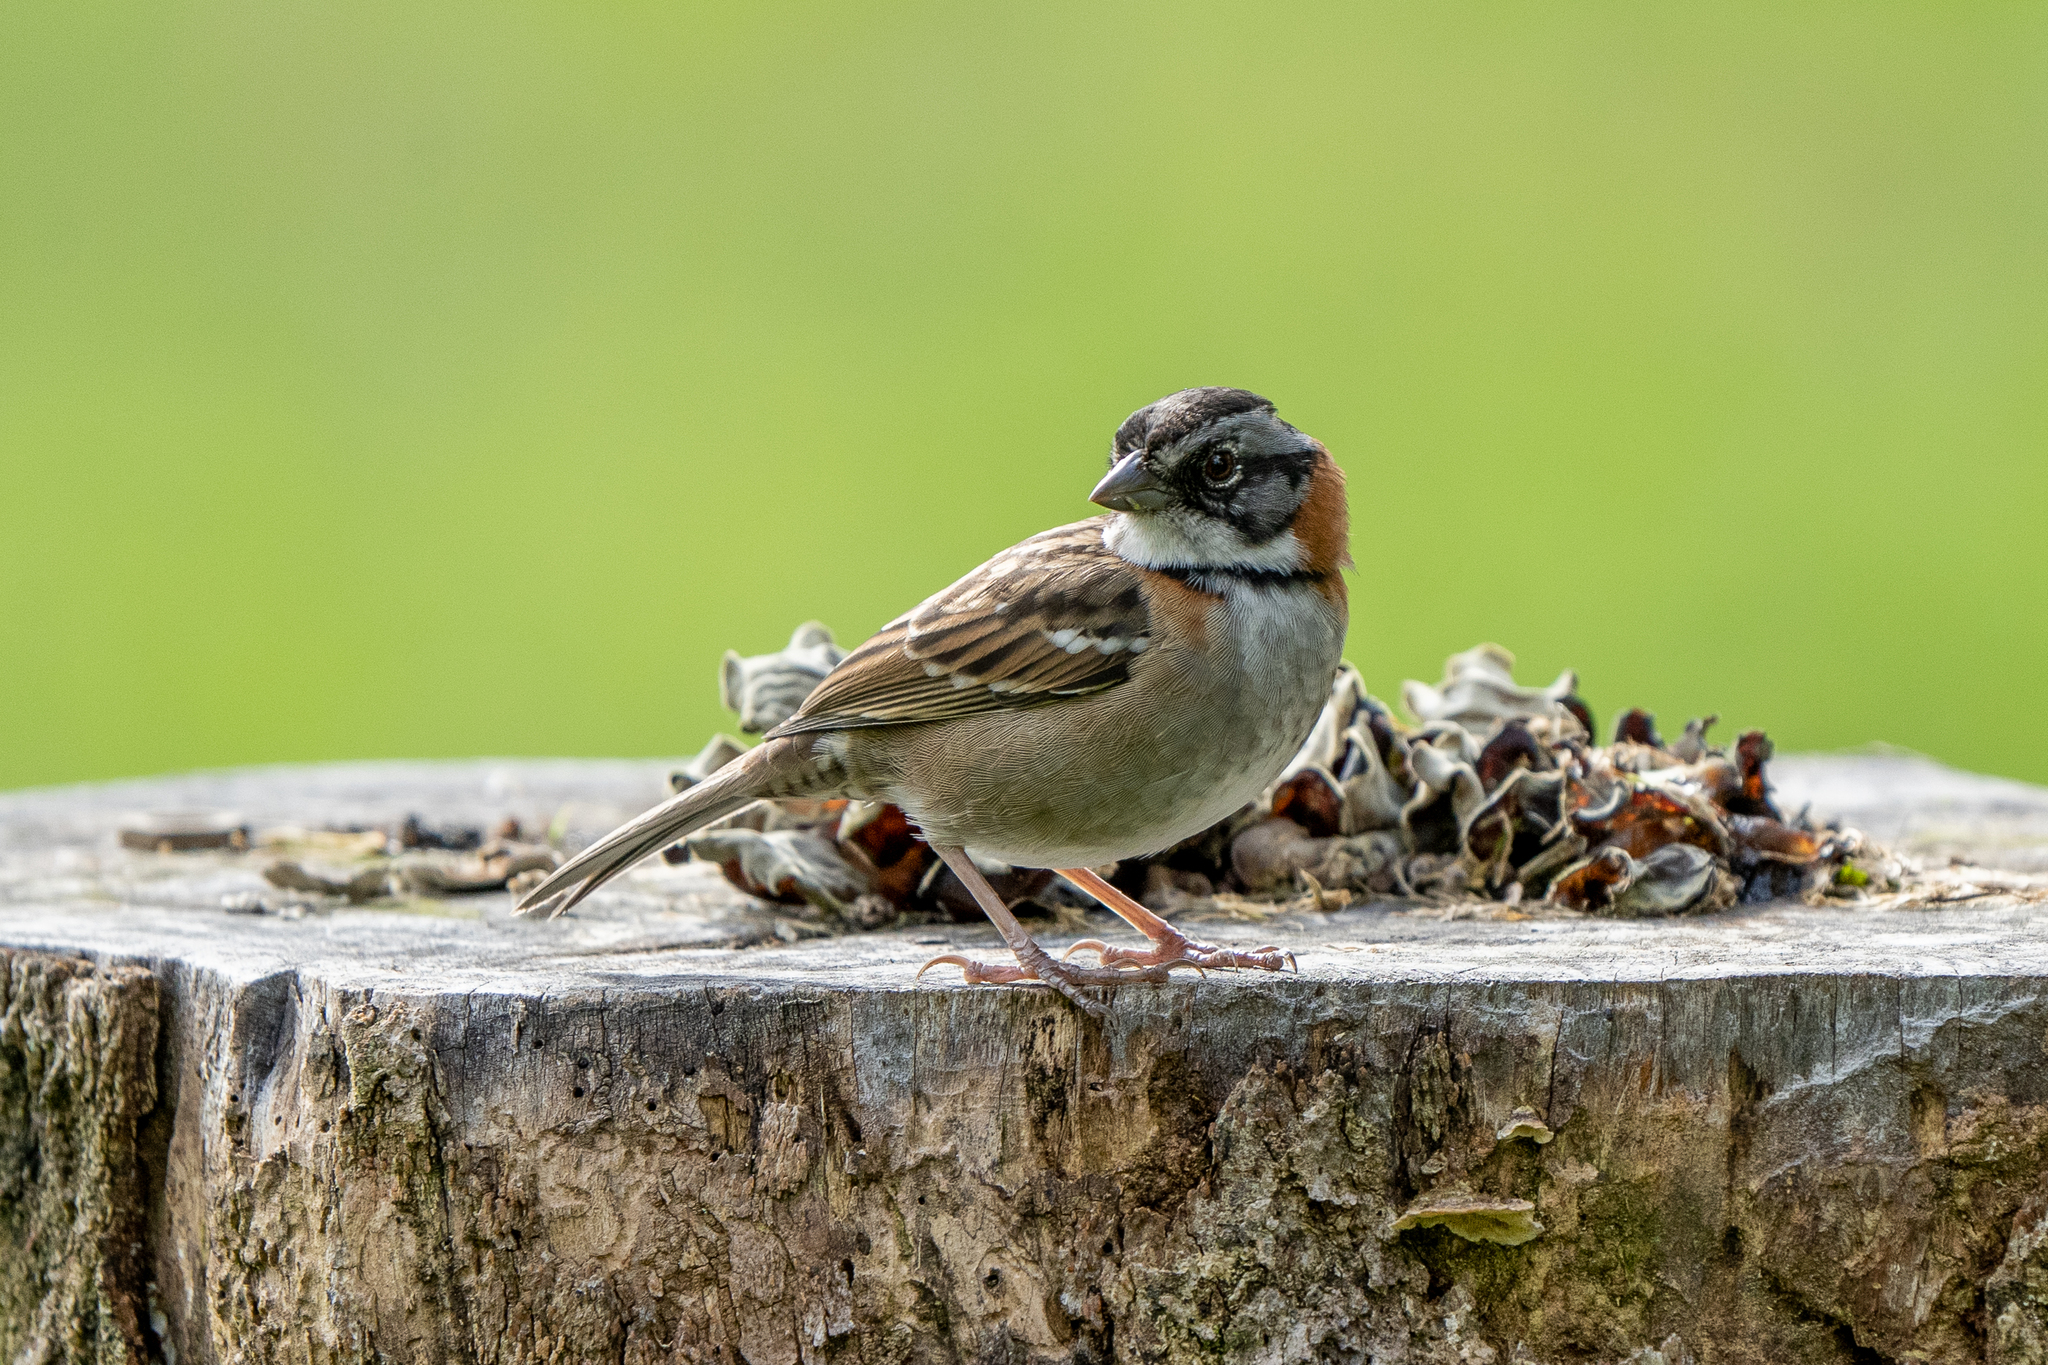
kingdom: Animalia
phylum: Chordata
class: Aves
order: Passeriformes
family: Passerellidae
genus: Zonotrichia
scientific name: Zonotrichia capensis
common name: Rufous-collared sparrow
